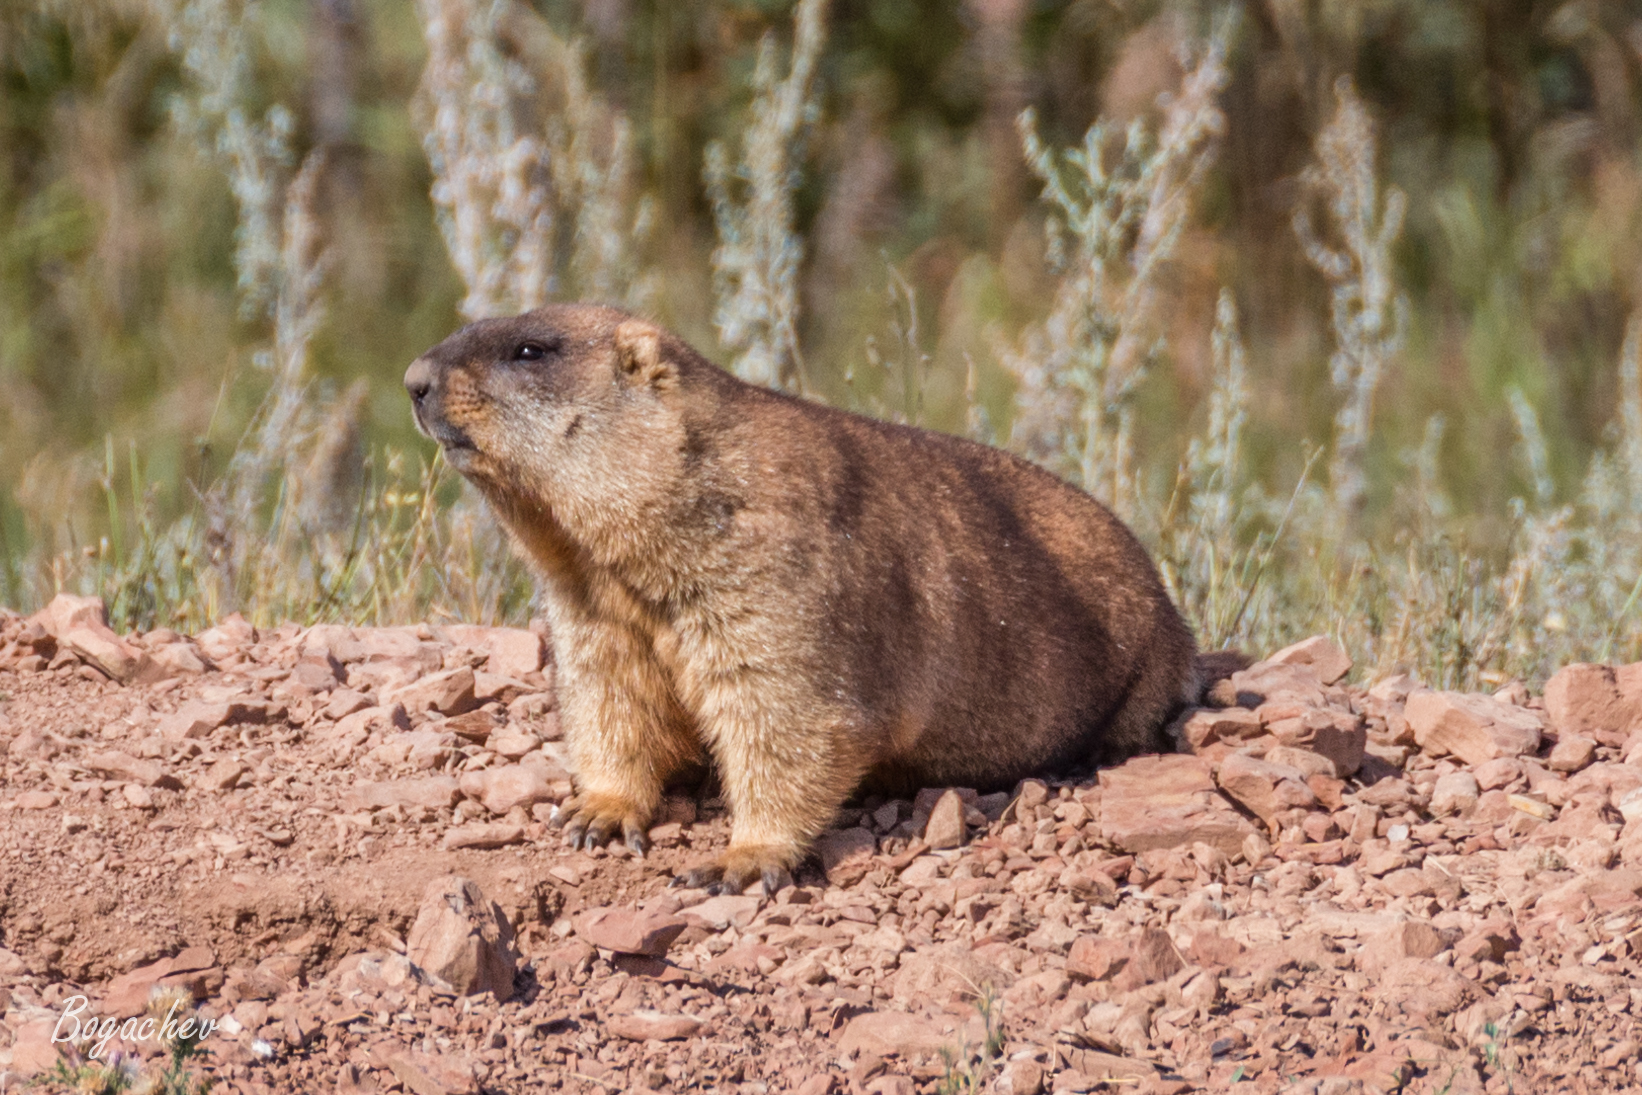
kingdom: Animalia
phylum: Chordata
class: Mammalia
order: Rodentia
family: Sciuridae
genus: Marmota
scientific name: Marmota bobak
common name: Bobak marmot
